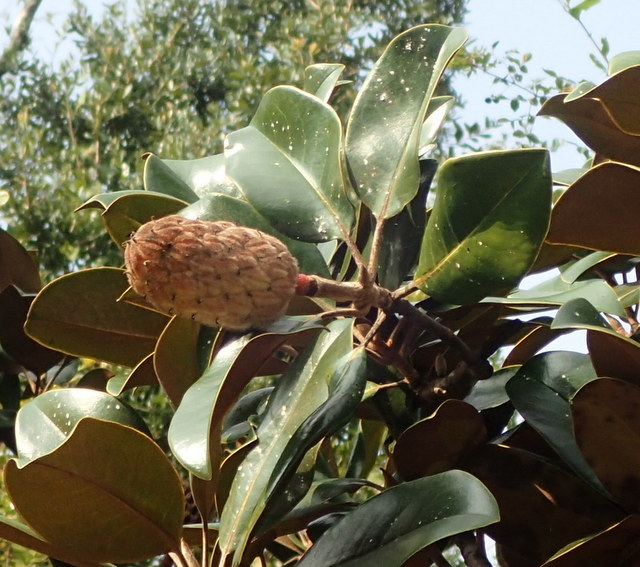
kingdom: Plantae
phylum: Tracheophyta
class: Magnoliopsida
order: Magnoliales
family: Magnoliaceae
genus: Magnolia
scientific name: Magnolia grandiflora
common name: Southern magnolia
